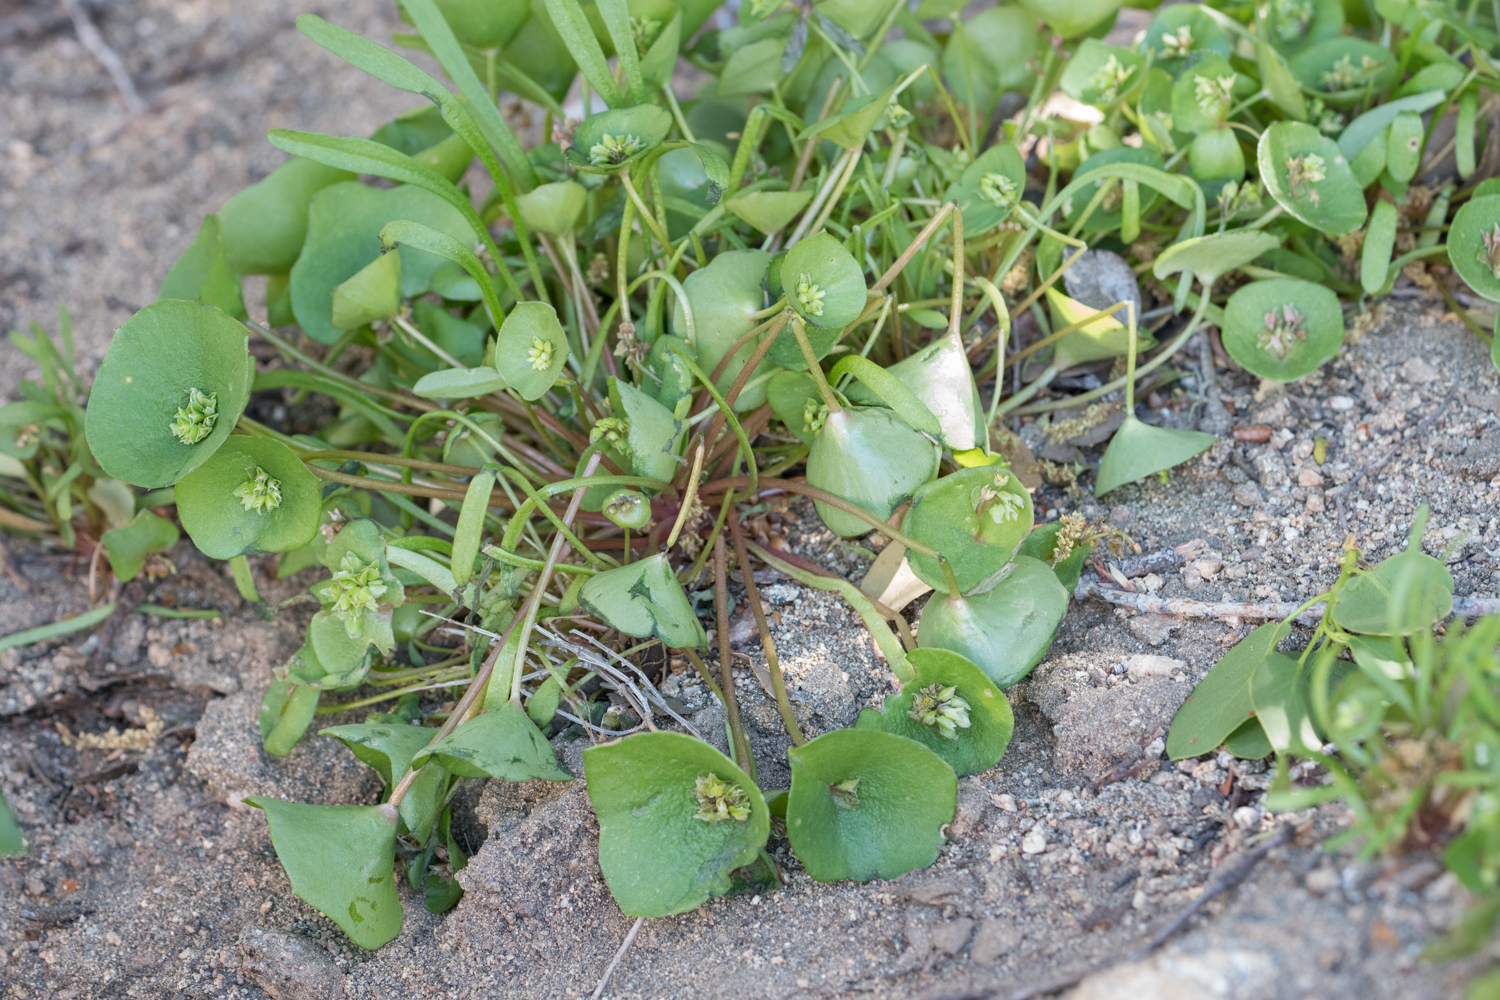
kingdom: Plantae
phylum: Tracheophyta
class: Magnoliopsida
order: Caryophyllales
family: Montiaceae
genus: Claytonia
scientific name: Claytonia parviflora
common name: Indian-lettuce
